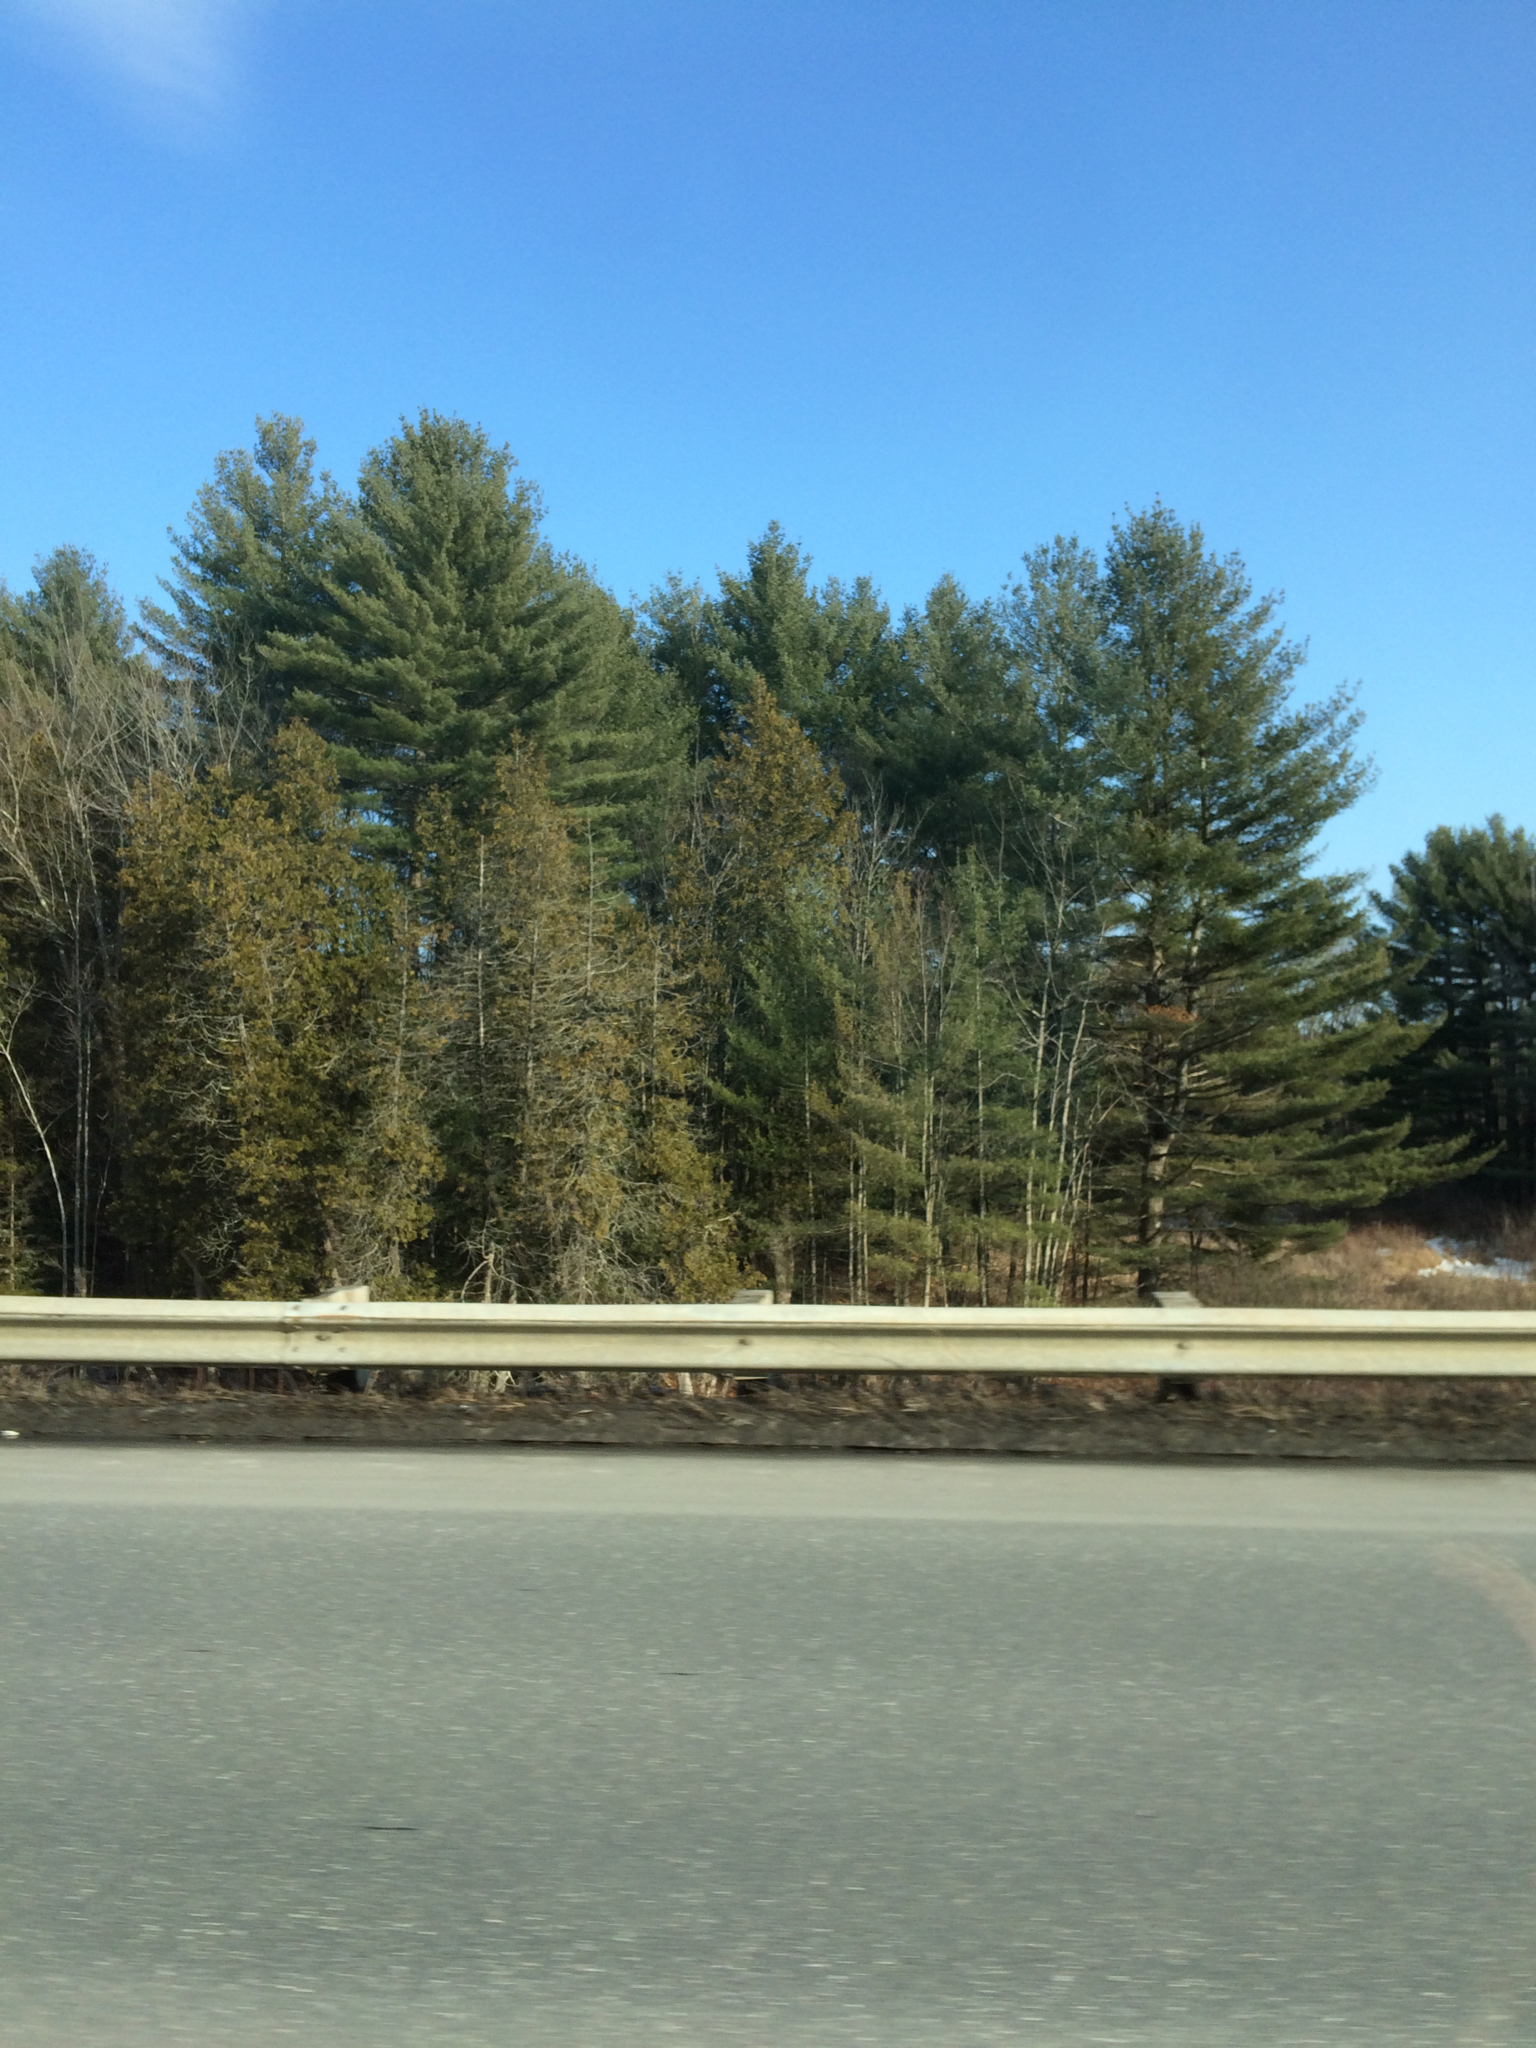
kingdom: Plantae
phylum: Tracheophyta
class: Pinopsida
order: Pinales
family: Cupressaceae
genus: Thuja
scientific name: Thuja occidentalis
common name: Northern white-cedar
